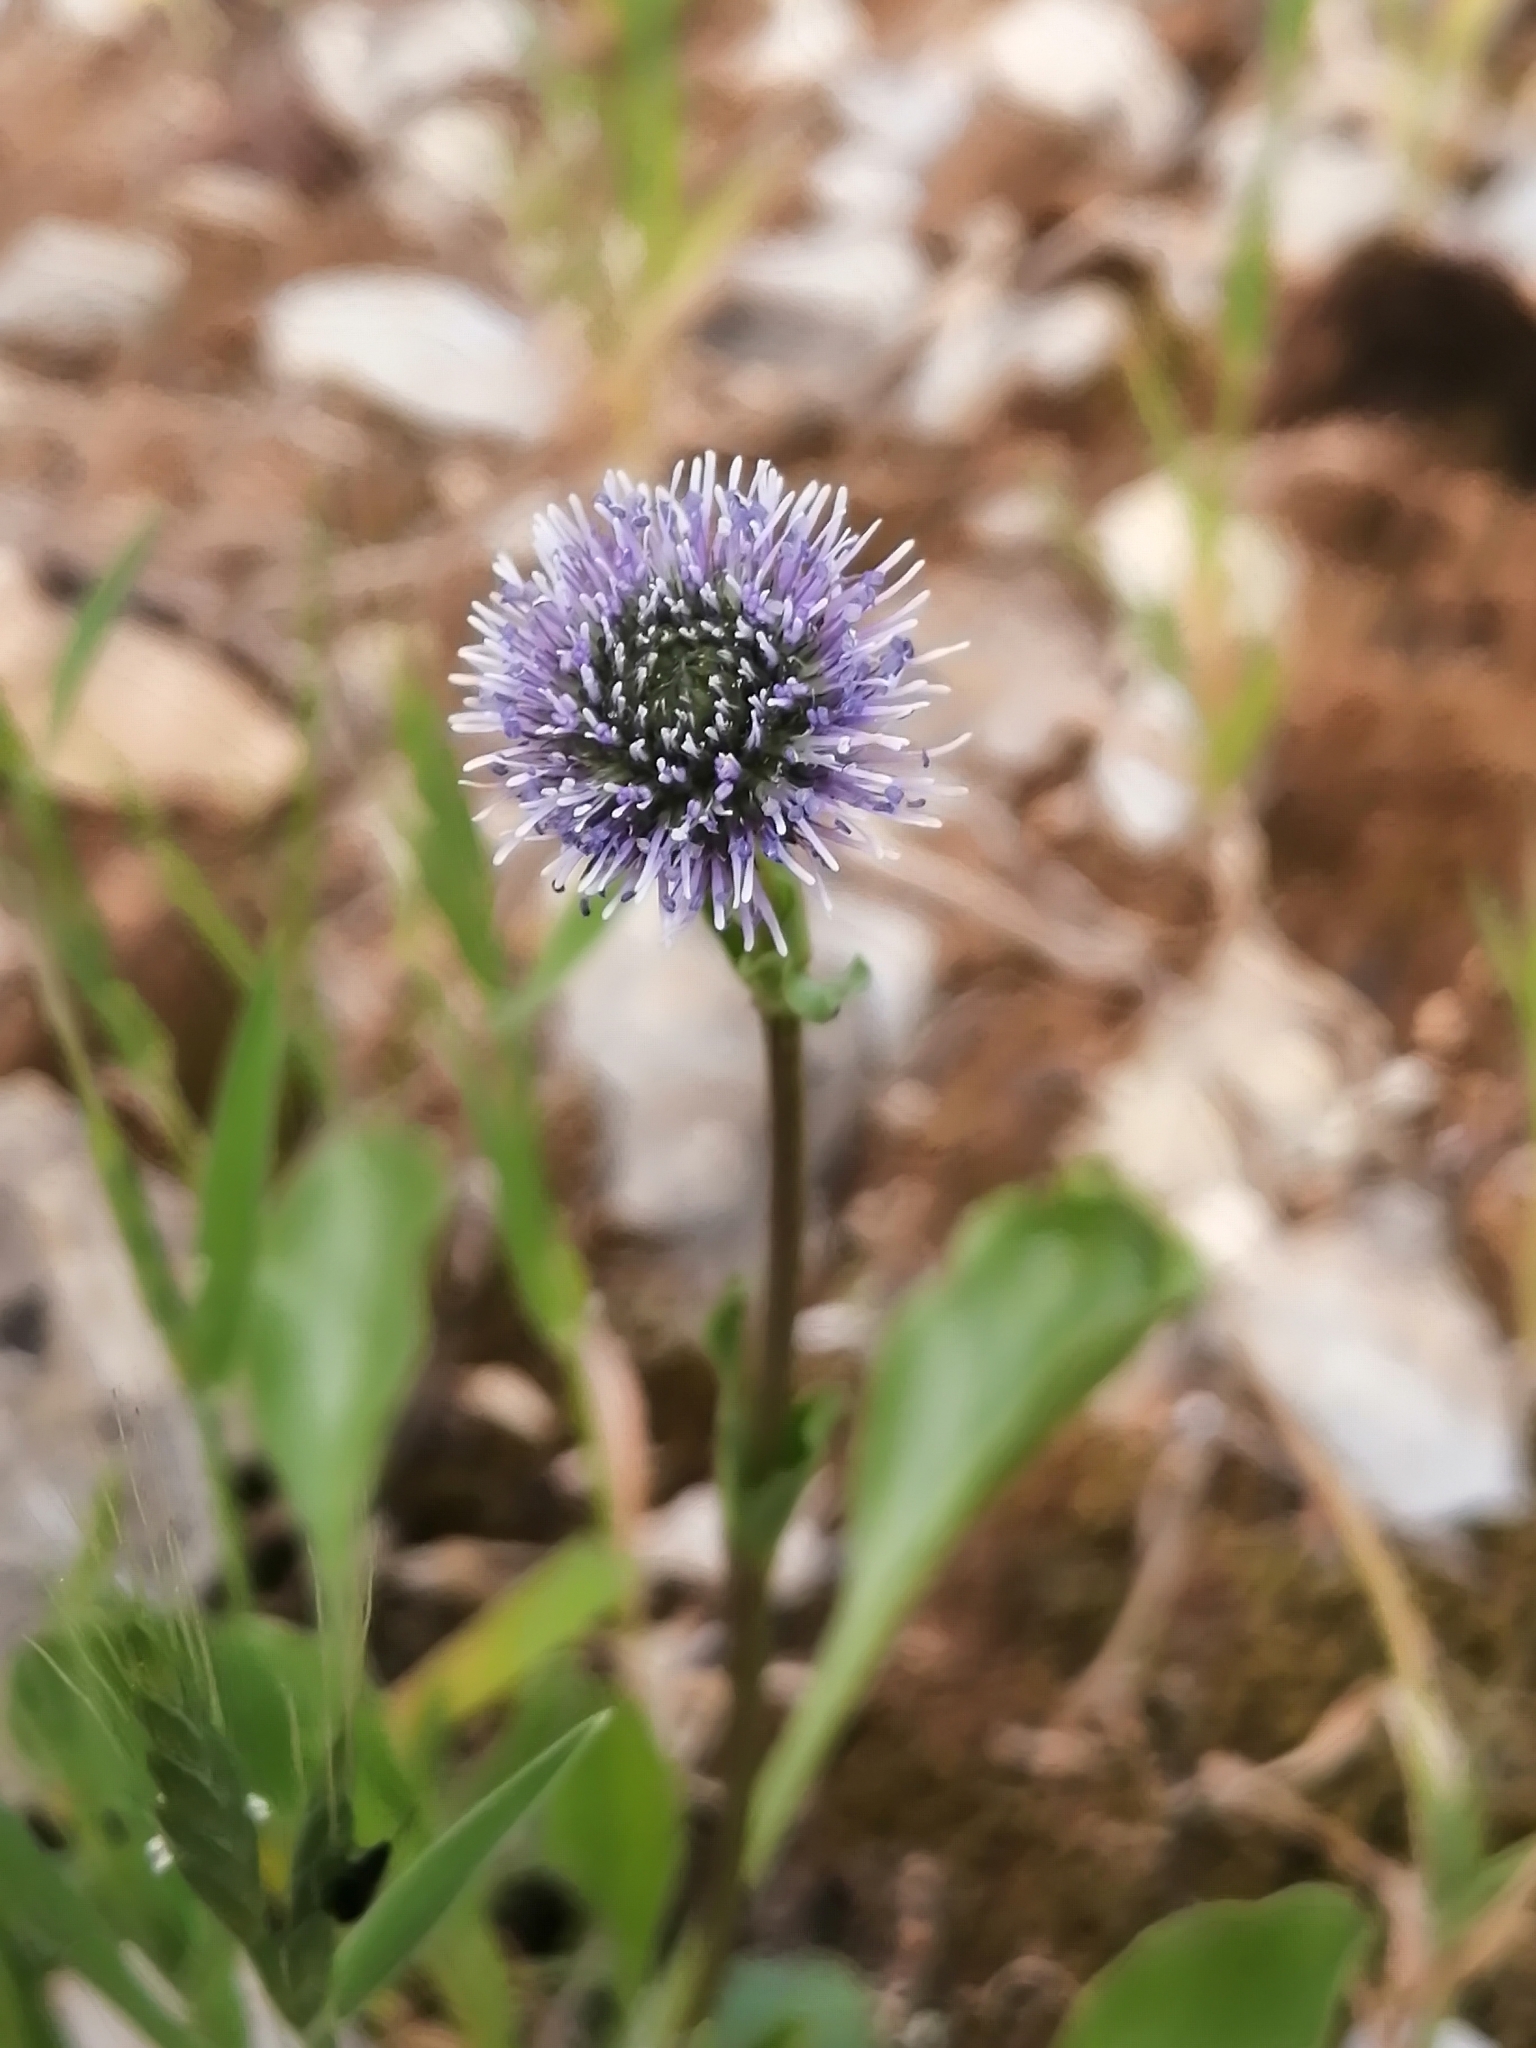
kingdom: Plantae
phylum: Tracheophyta
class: Magnoliopsida
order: Lamiales
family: Plantaginaceae
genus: Globularia
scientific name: Globularia bisnagarica
